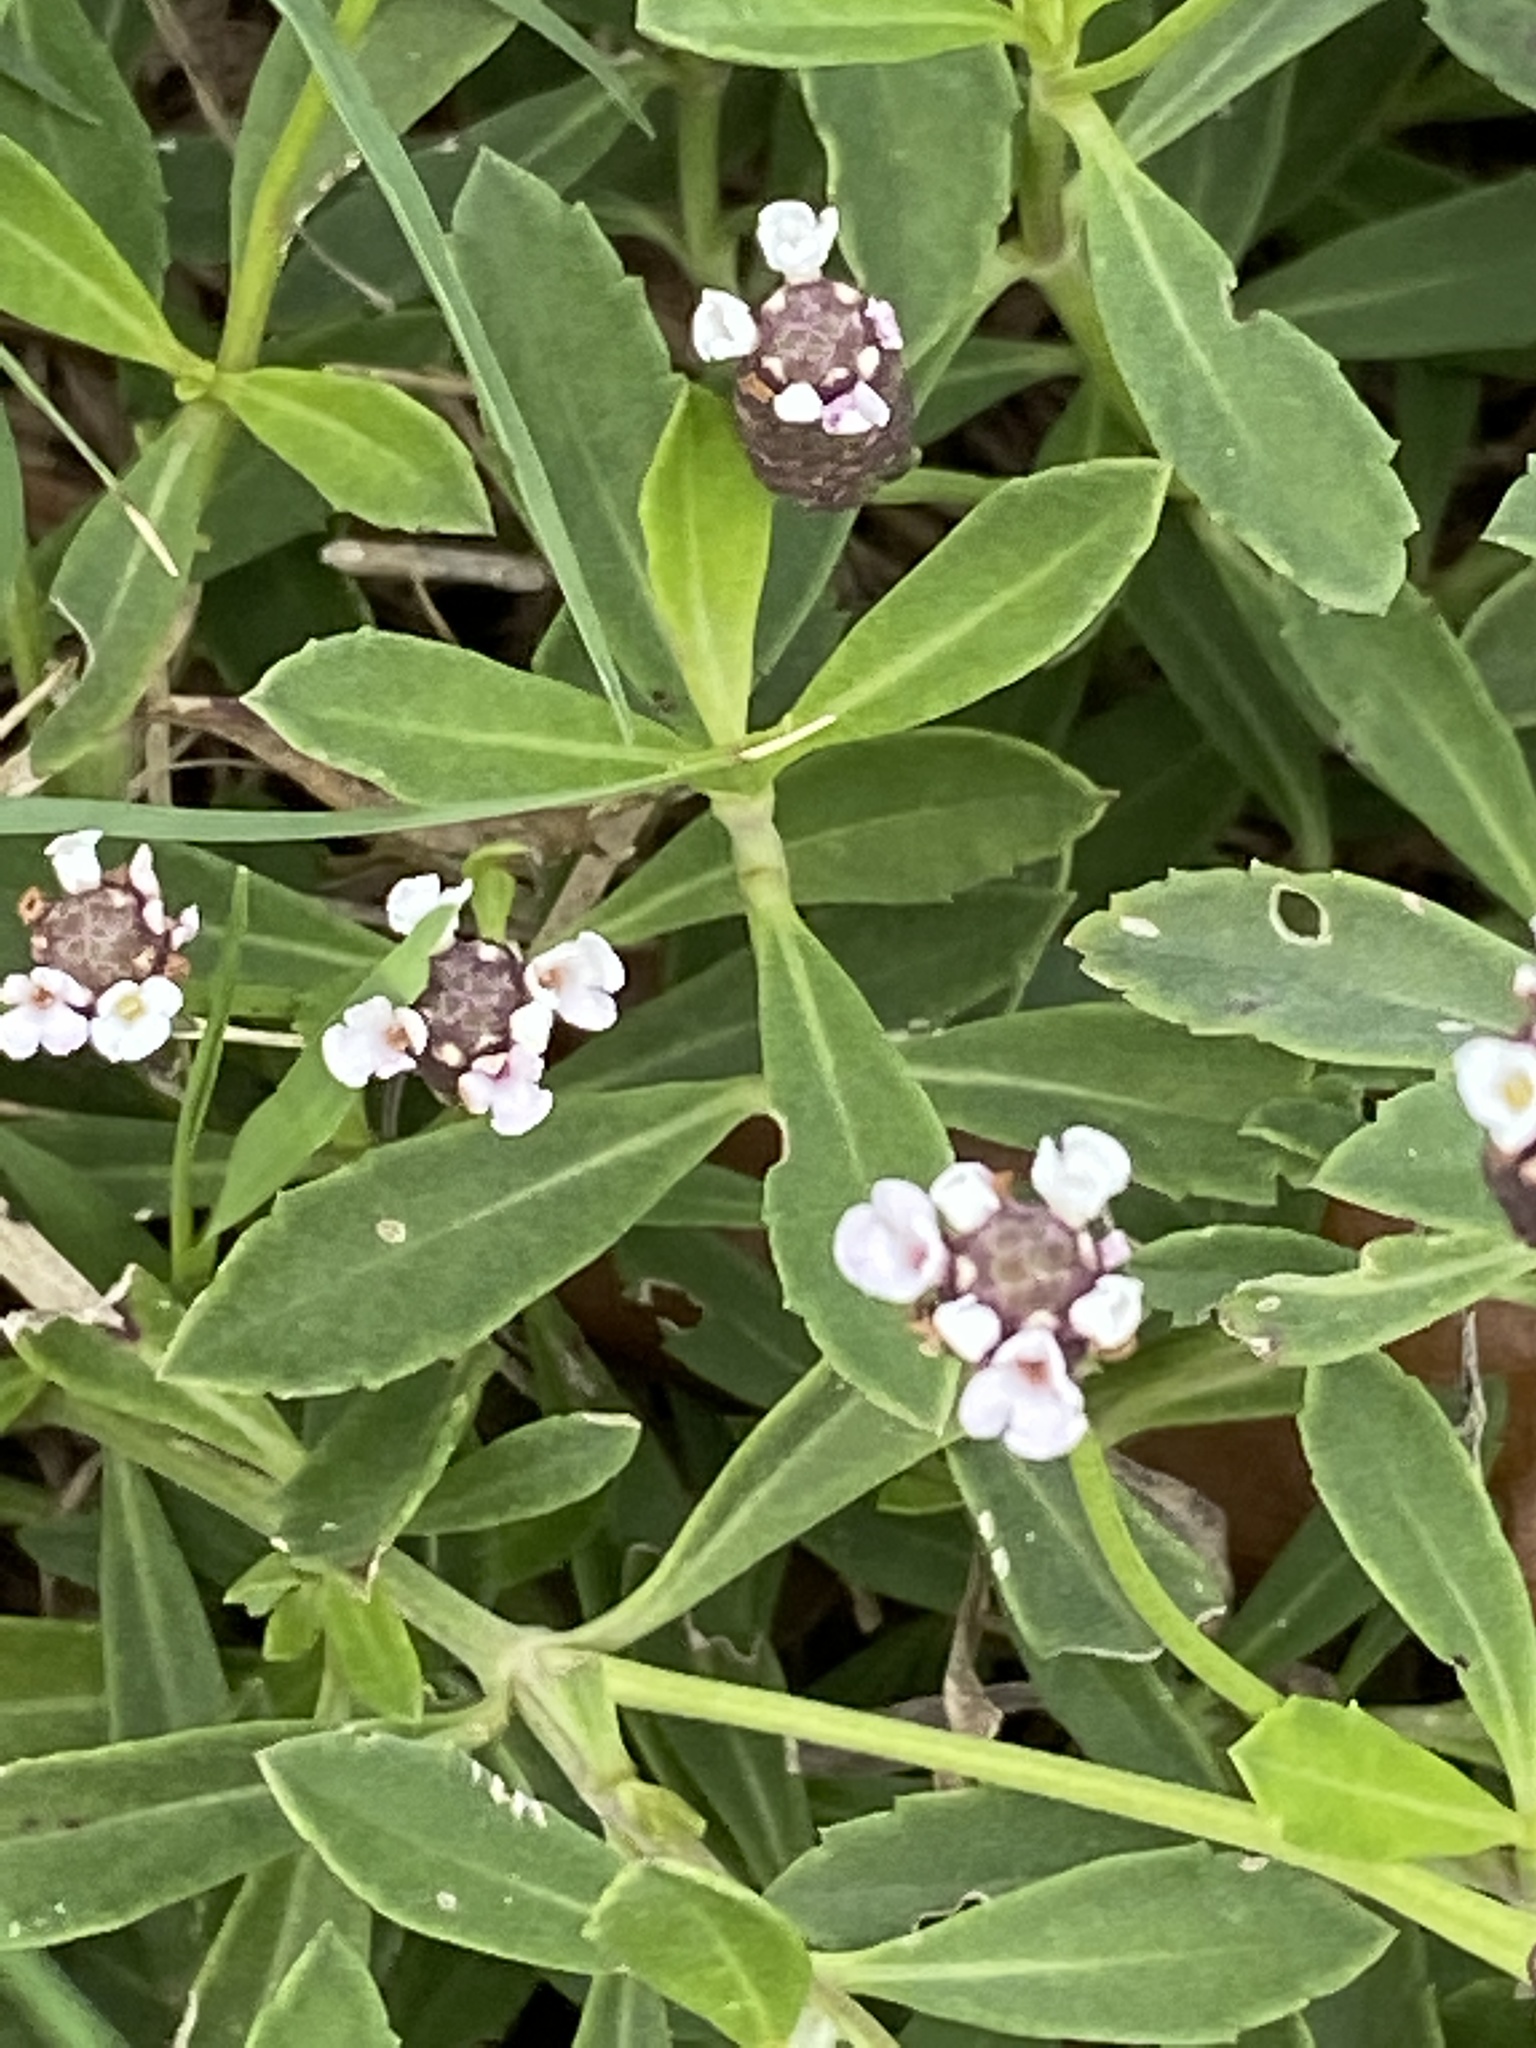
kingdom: Plantae
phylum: Tracheophyta
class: Magnoliopsida
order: Lamiales
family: Verbenaceae
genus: Phyla
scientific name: Phyla nodiflora
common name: Frogfruit
